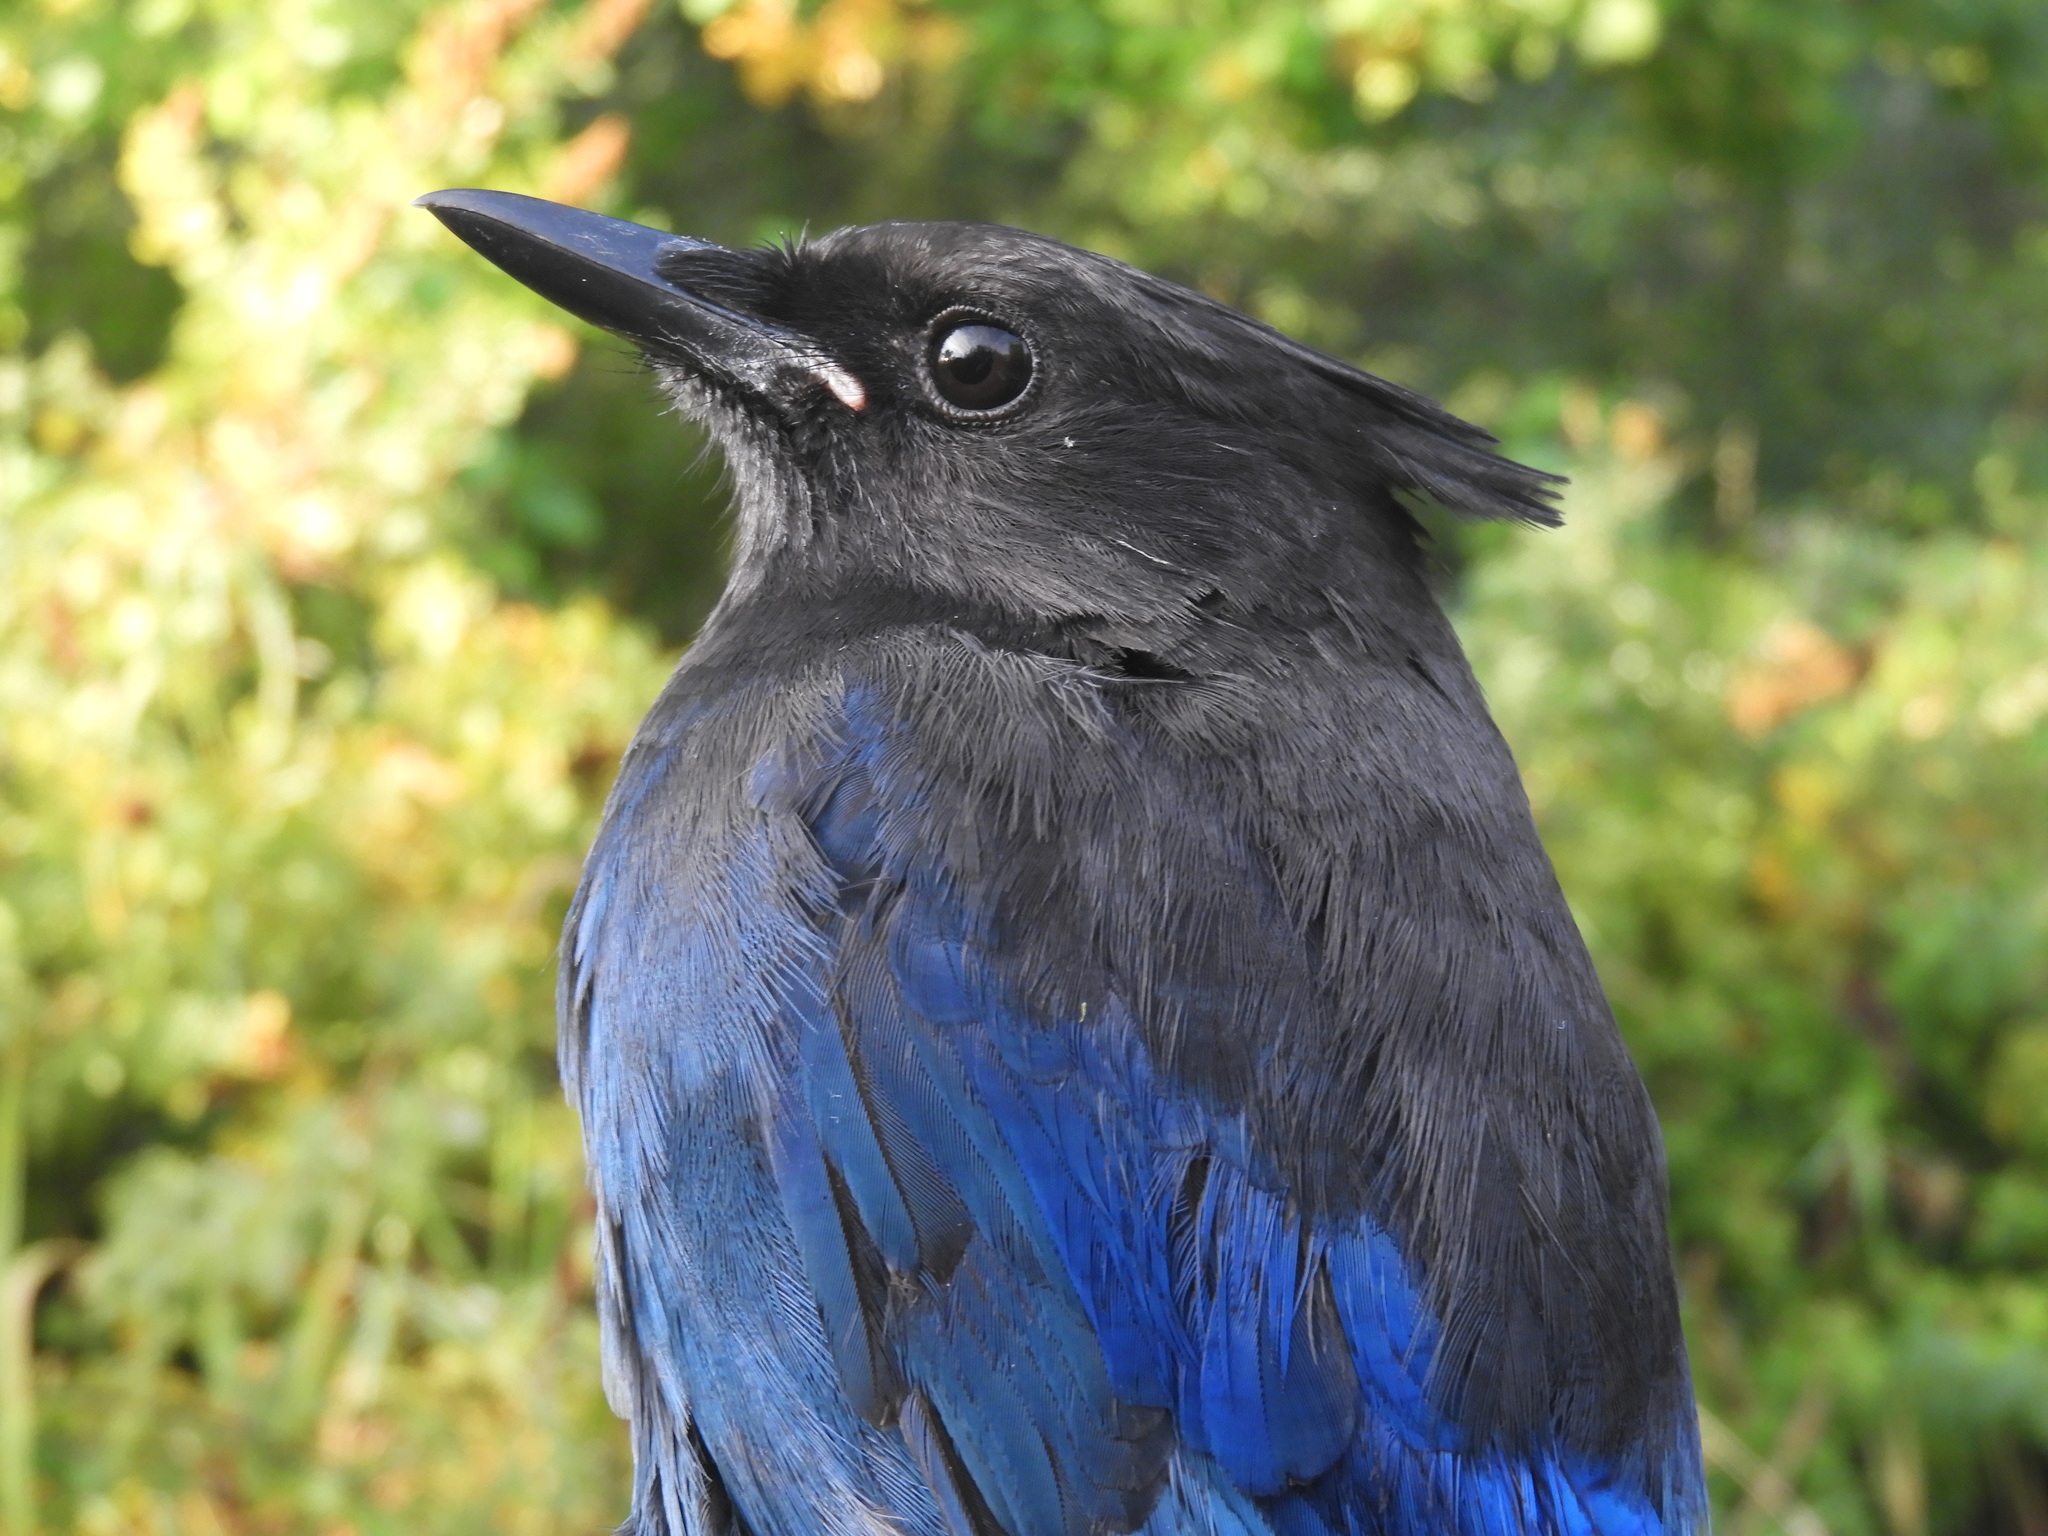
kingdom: Animalia
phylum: Chordata
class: Aves
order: Passeriformes
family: Corvidae
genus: Cyanocitta
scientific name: Cyanocitta stelleri
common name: Steller's jay
